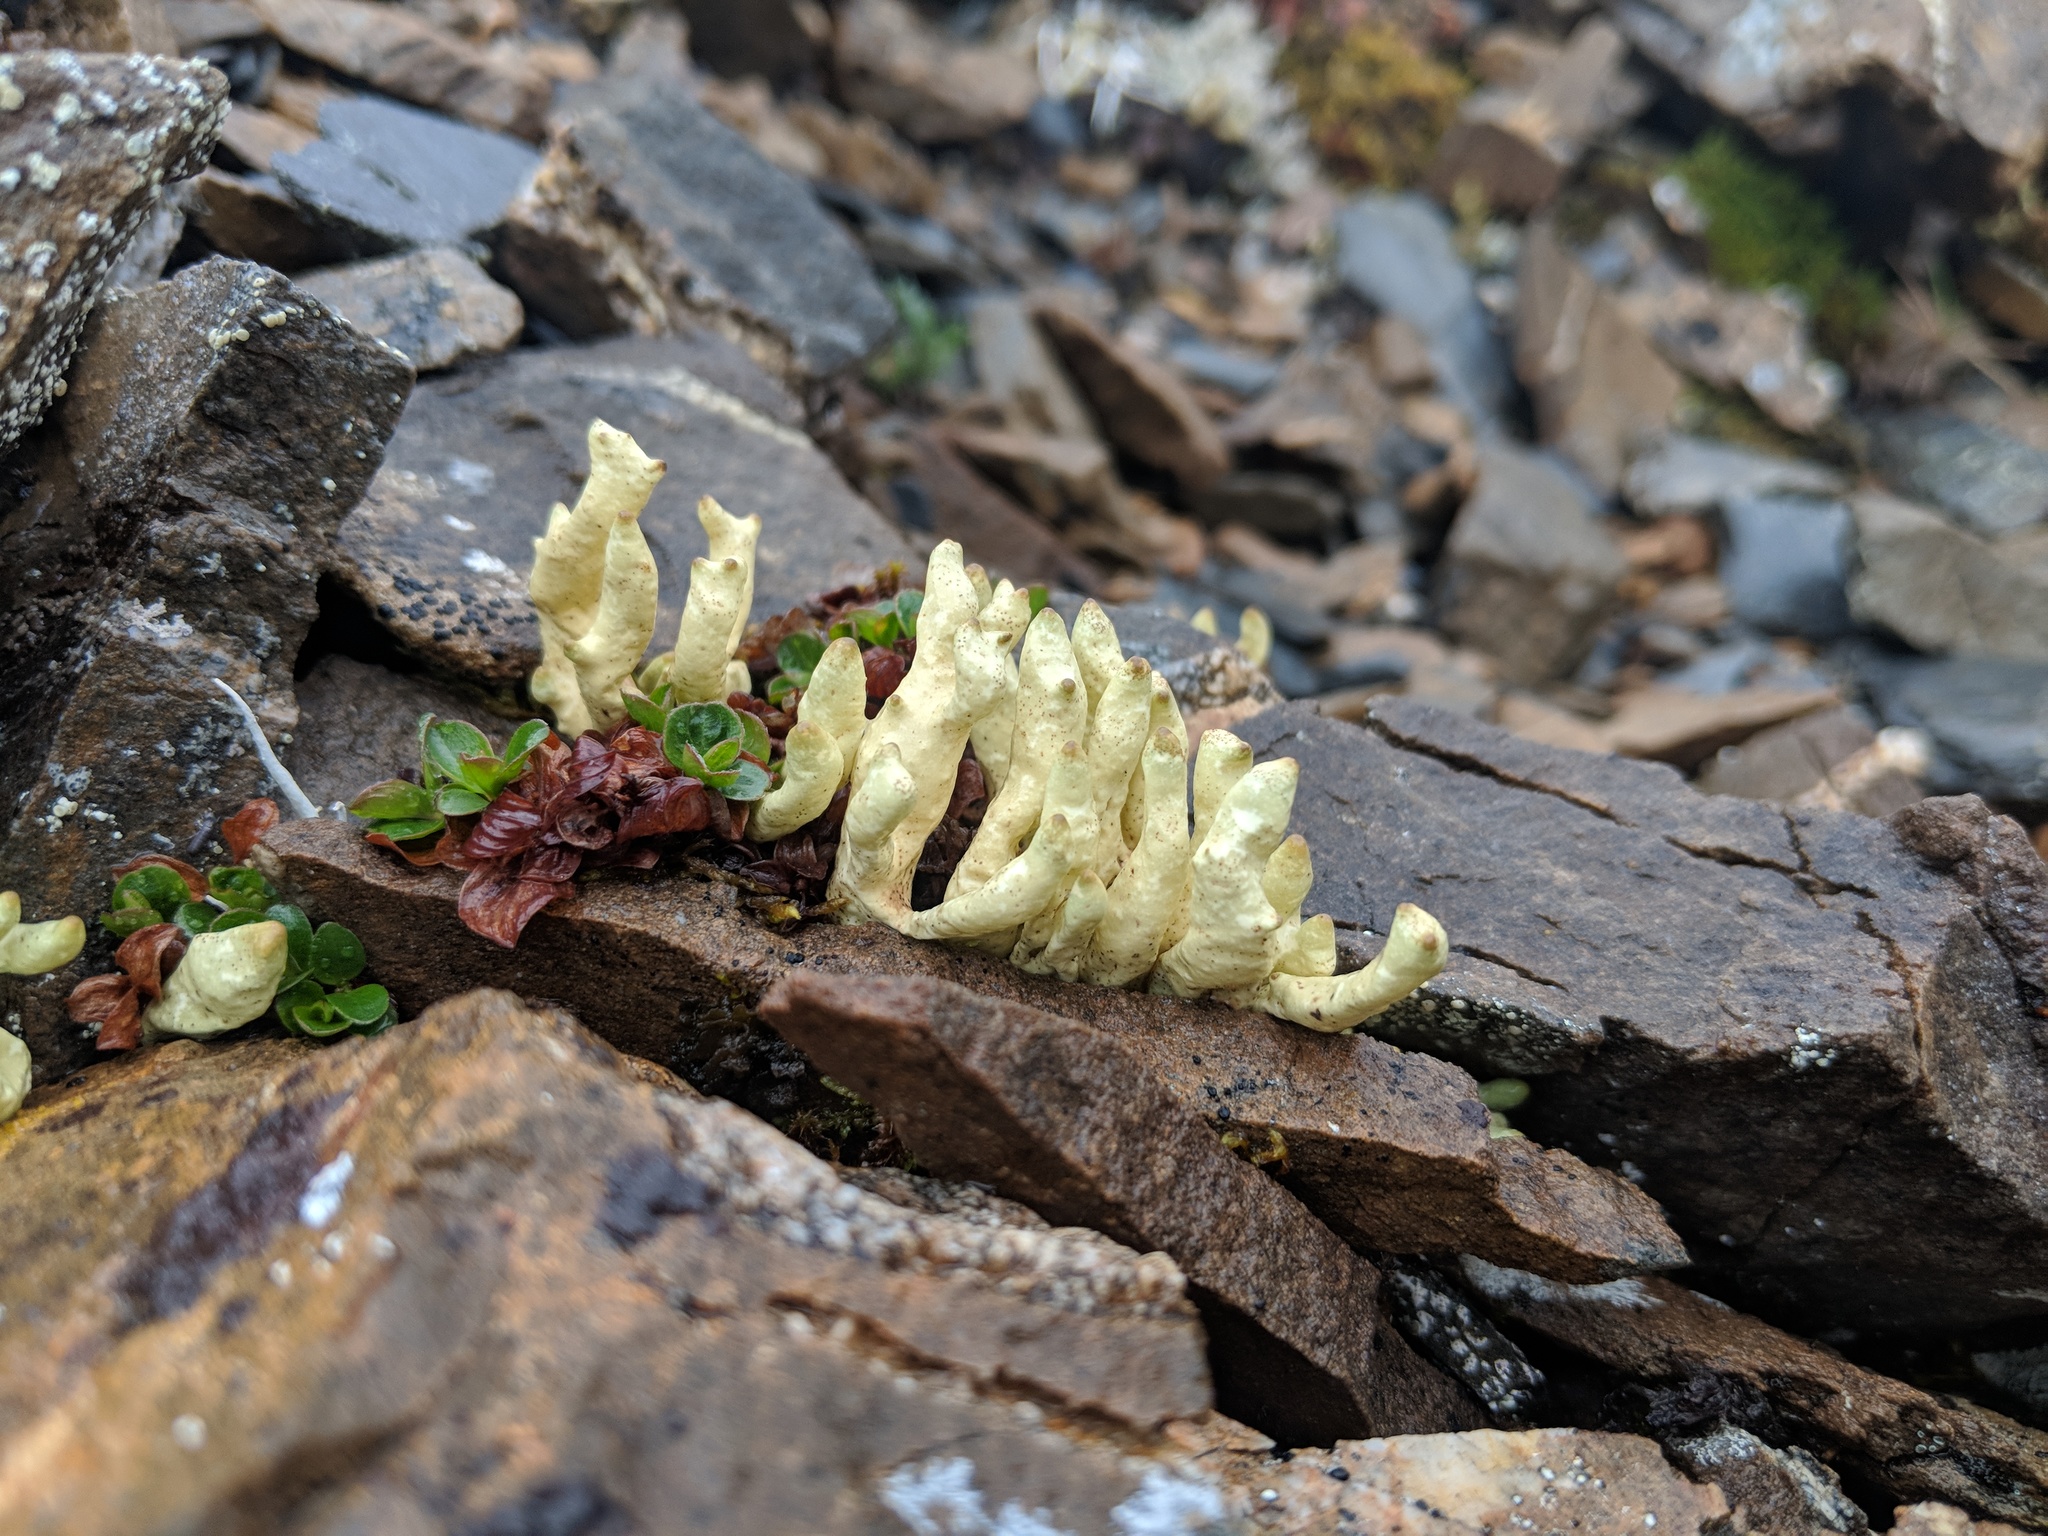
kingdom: Fungi
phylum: Ascomycota
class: Lecanoromycetes
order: Lecanorales
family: Parmeliaceae
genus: Dactylina
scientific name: Dactylina arctica
